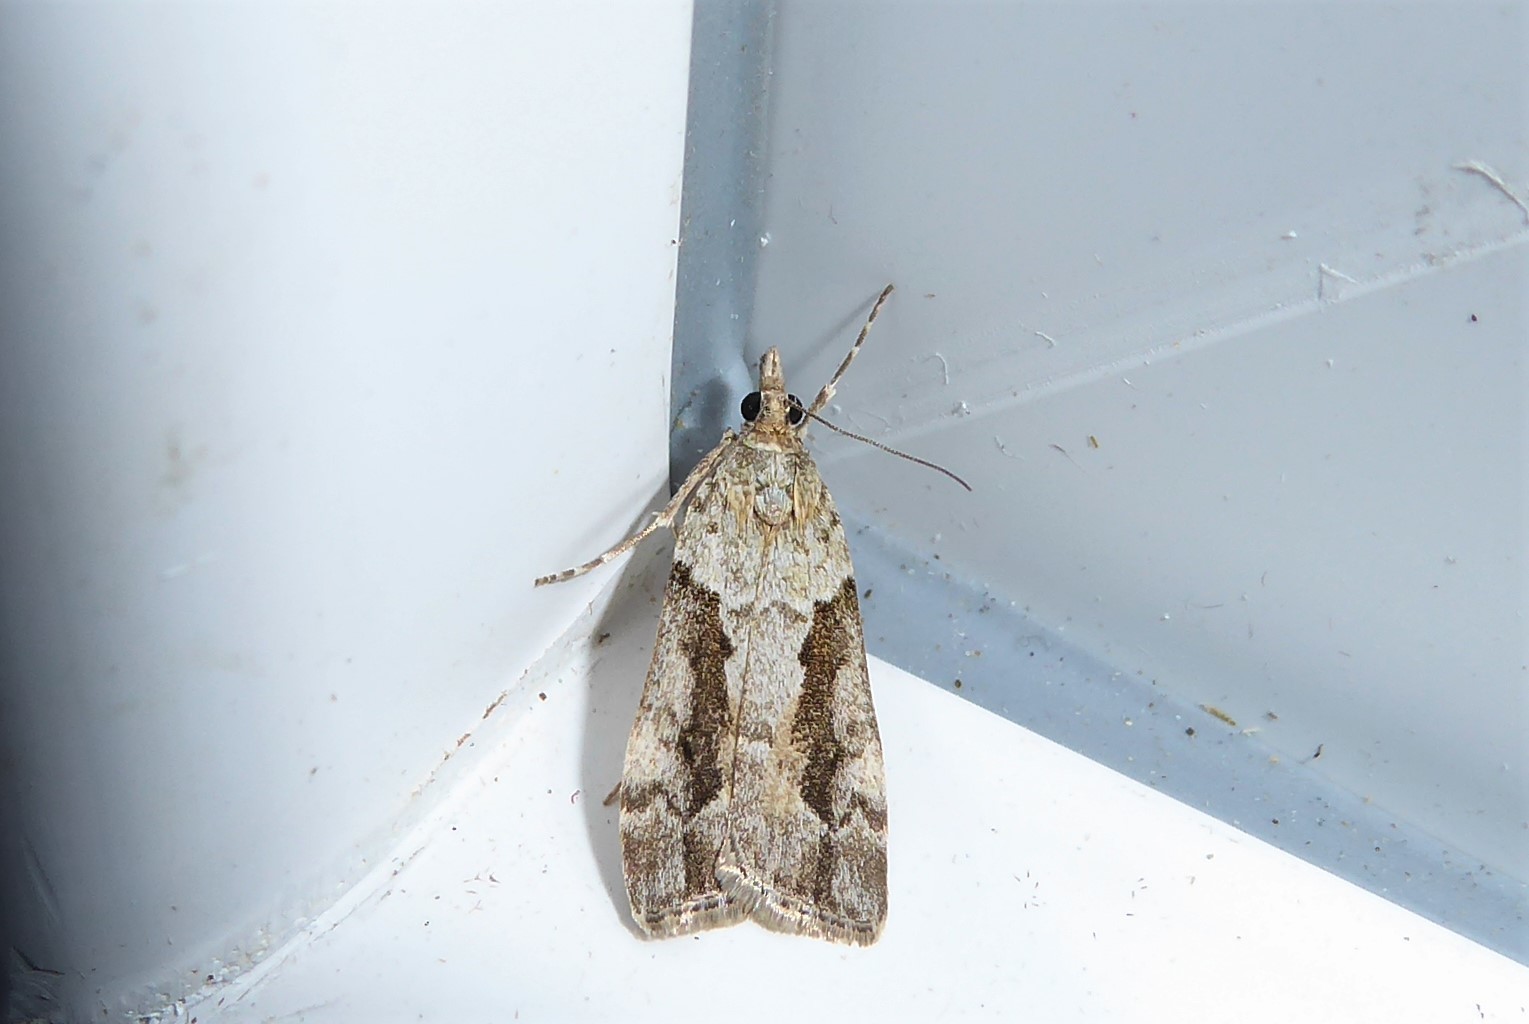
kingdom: Animalia
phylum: Arthropoda
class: Insecta
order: Lepidoptera
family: Crambidae
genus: Eudonia
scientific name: Eudonia submarginalis
